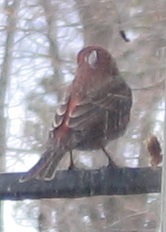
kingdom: Animalia
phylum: Chordata
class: Aves
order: Passeriformes
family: Fringillidae
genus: Haemorhous
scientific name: Haemorhous mexicanus
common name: House finch
